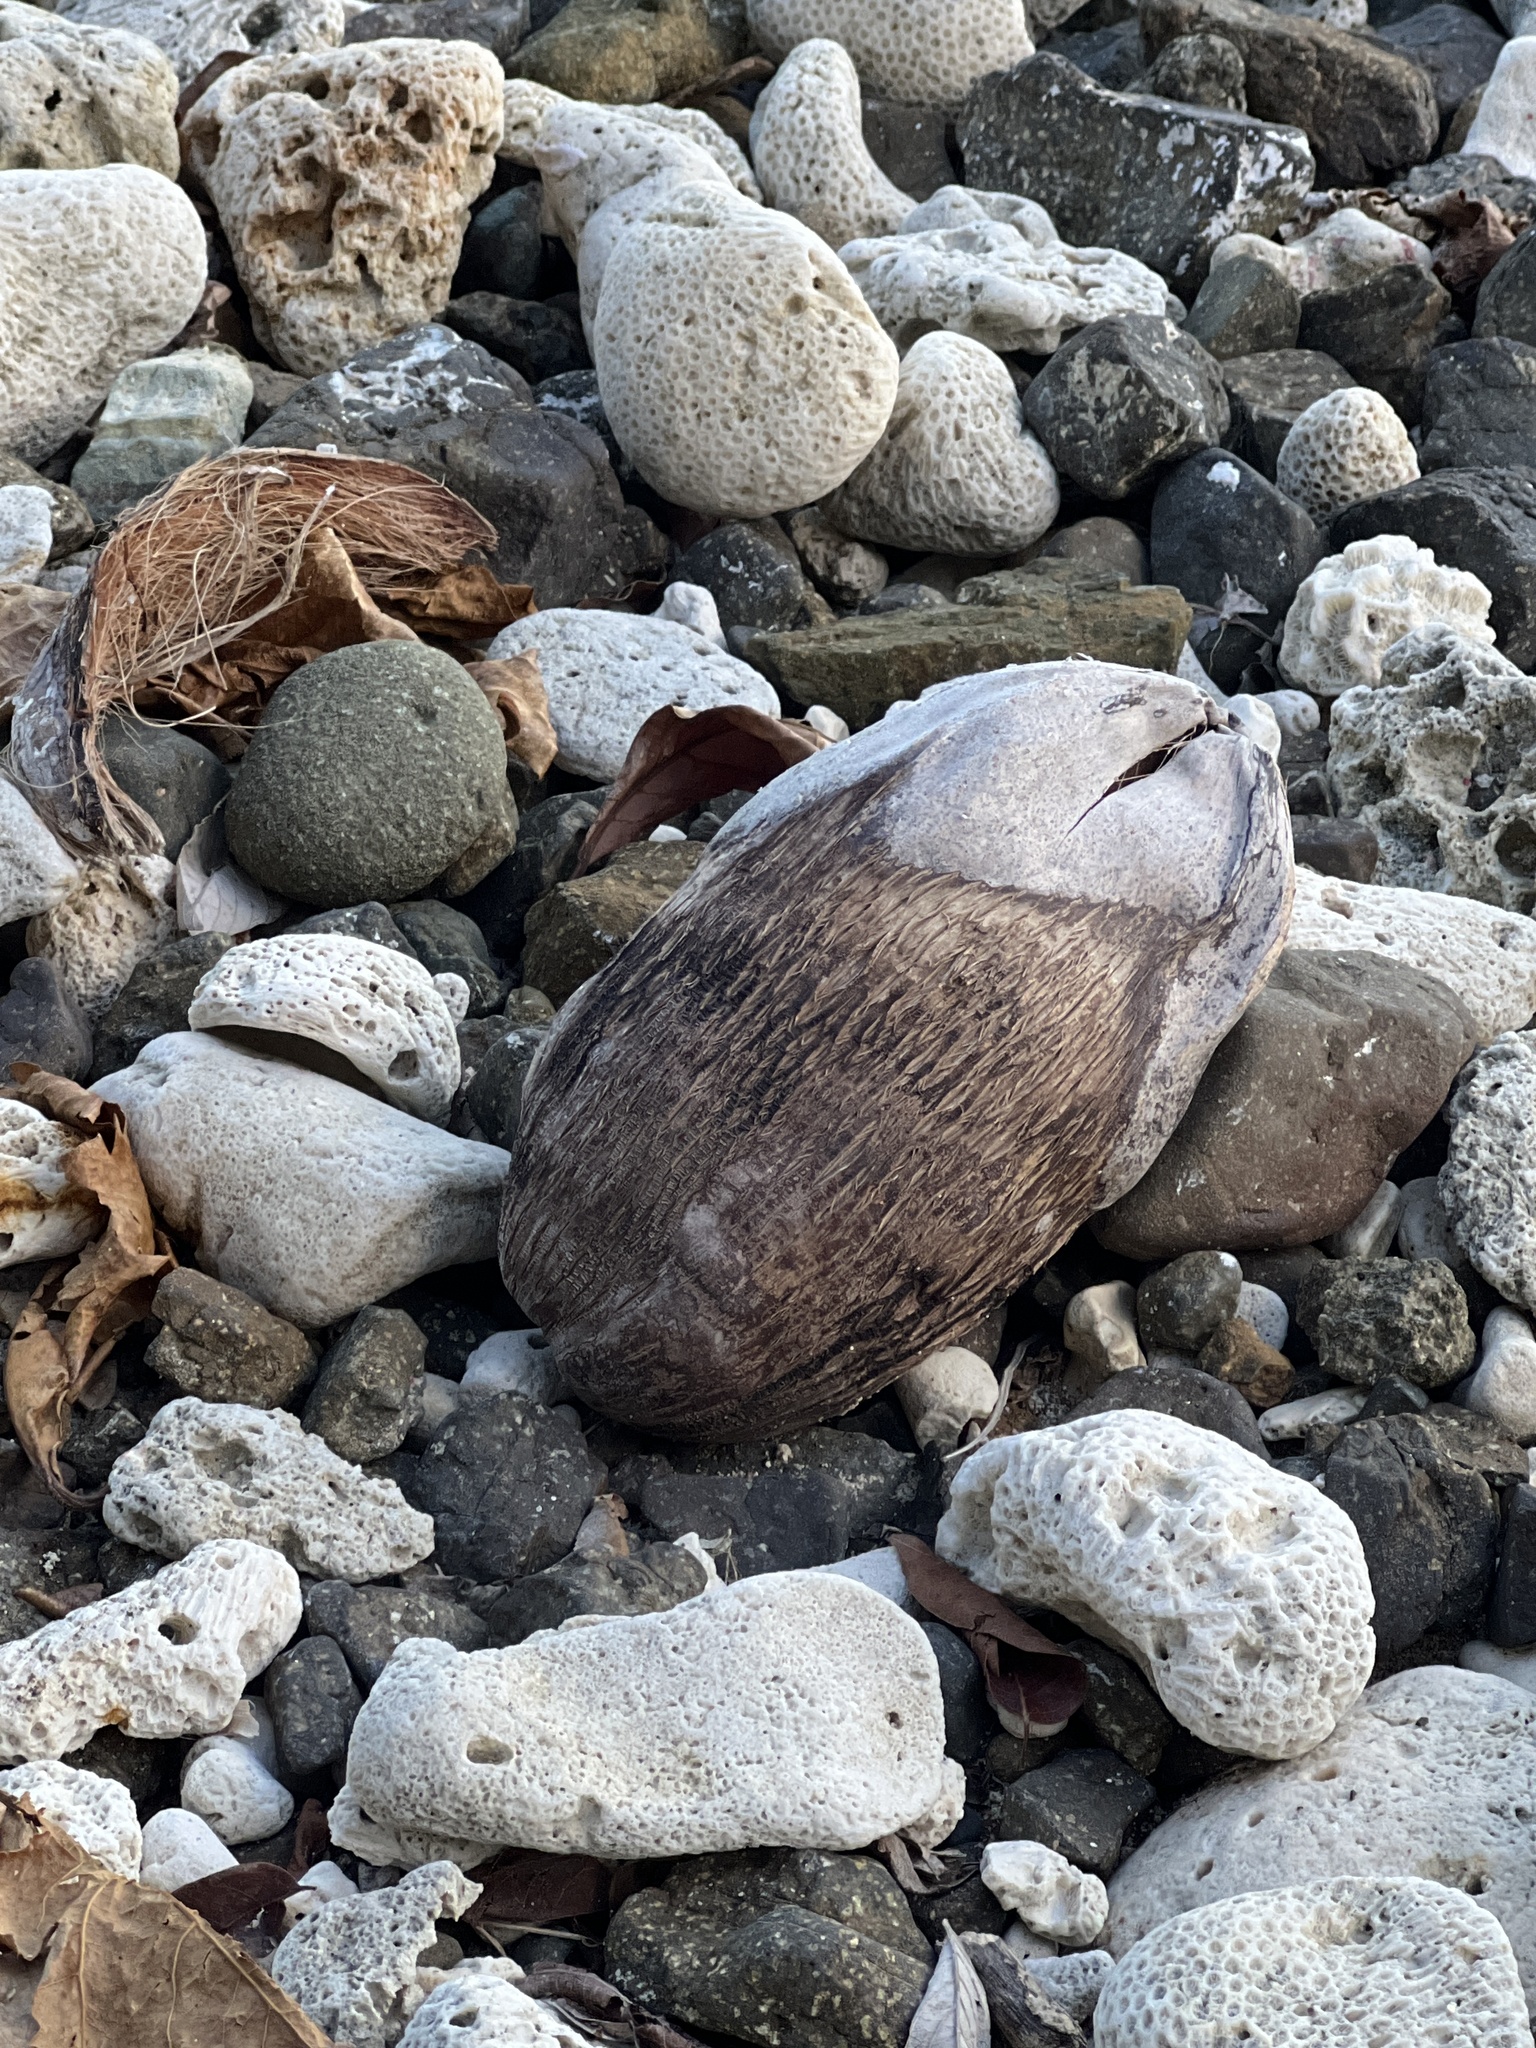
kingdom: Plantae
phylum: Tracheophyta
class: Liliopsida
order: Arecales
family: Arecaceae
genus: Cocos
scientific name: Cocos nucifera
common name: Coconut palm
